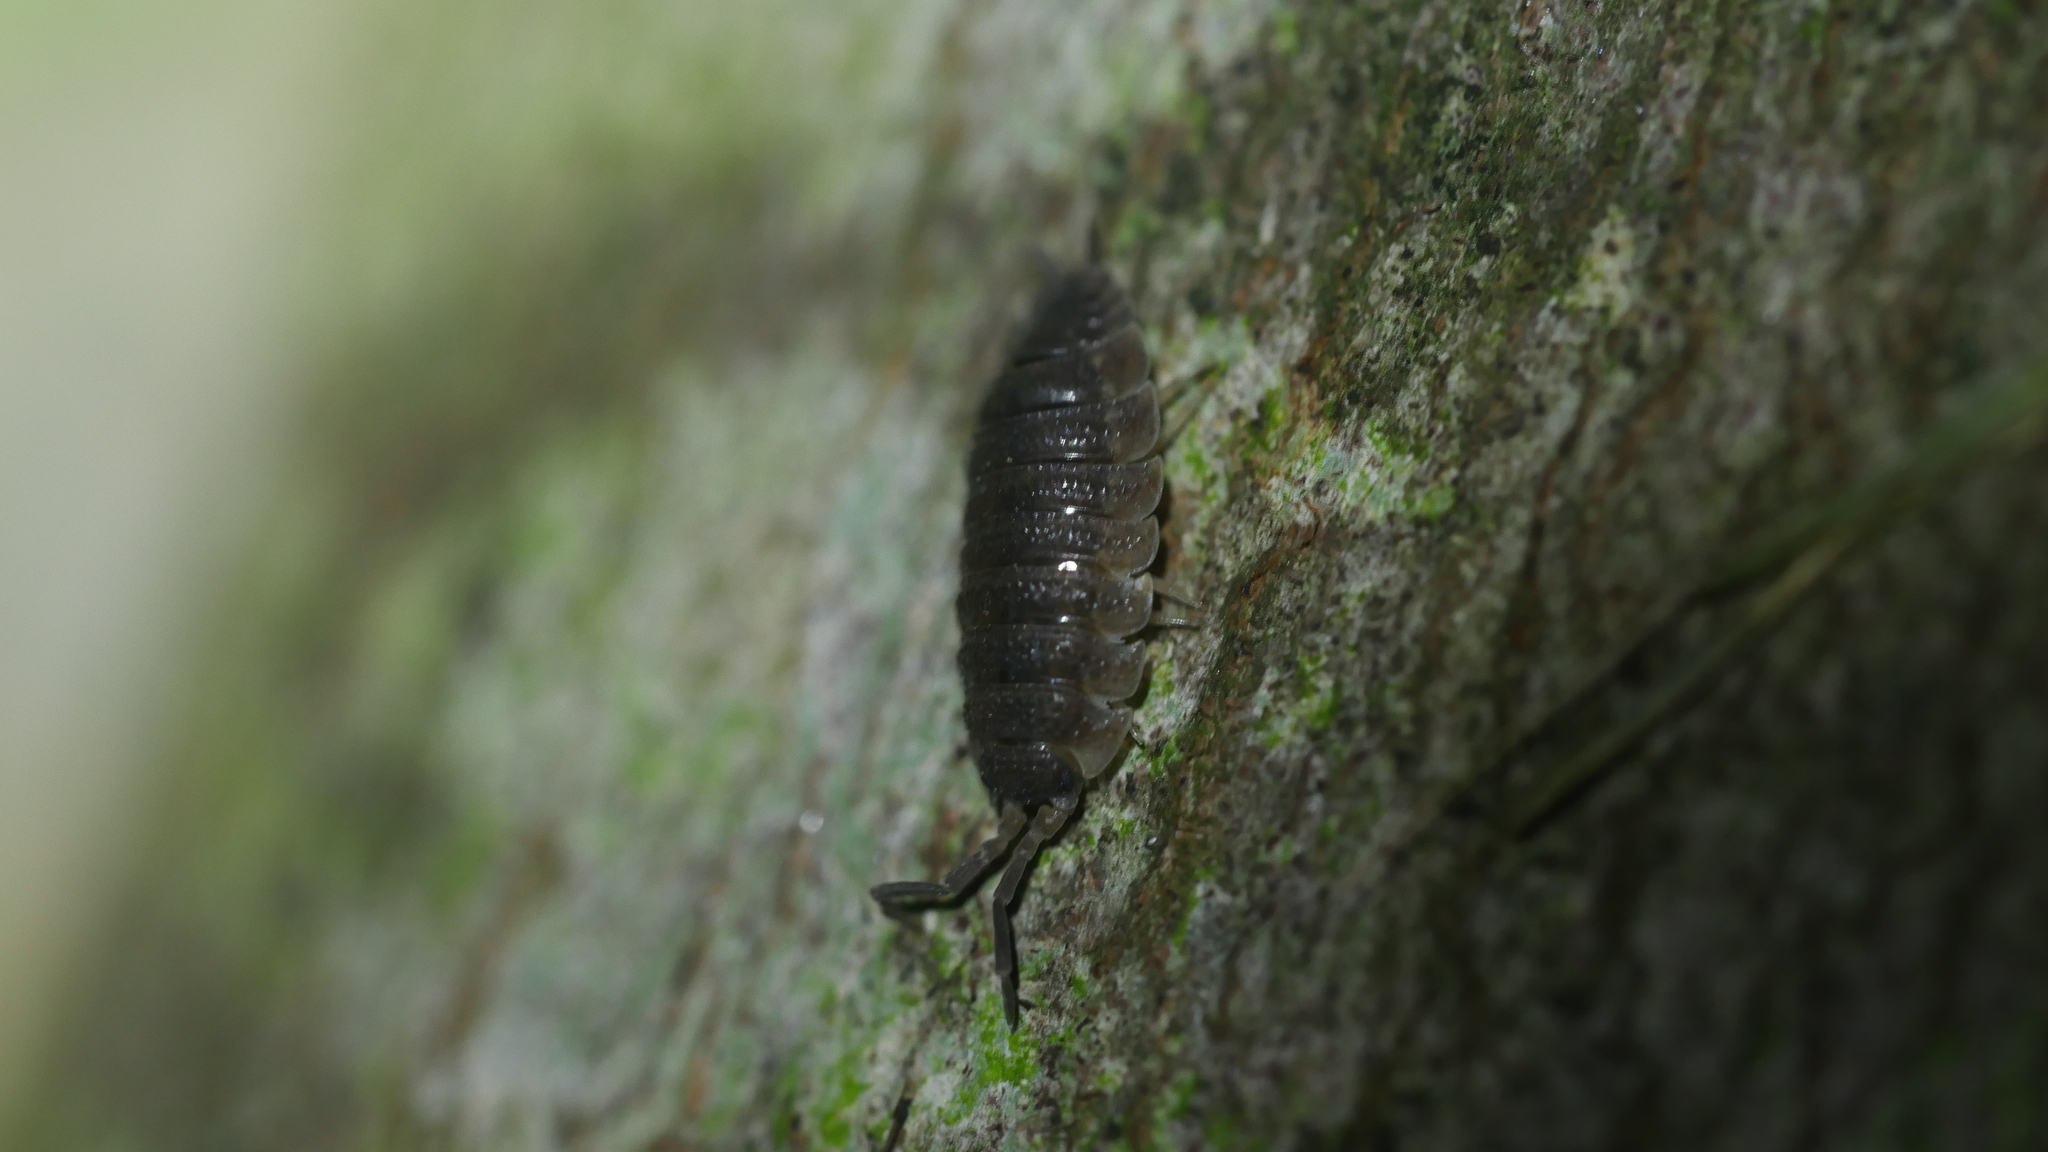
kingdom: Animalia
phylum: Arthropoda
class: Malacostraca
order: Isopoda
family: Porcellionidae
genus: Porcellio
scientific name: Porcellio scaber
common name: Common rough woodlouse
